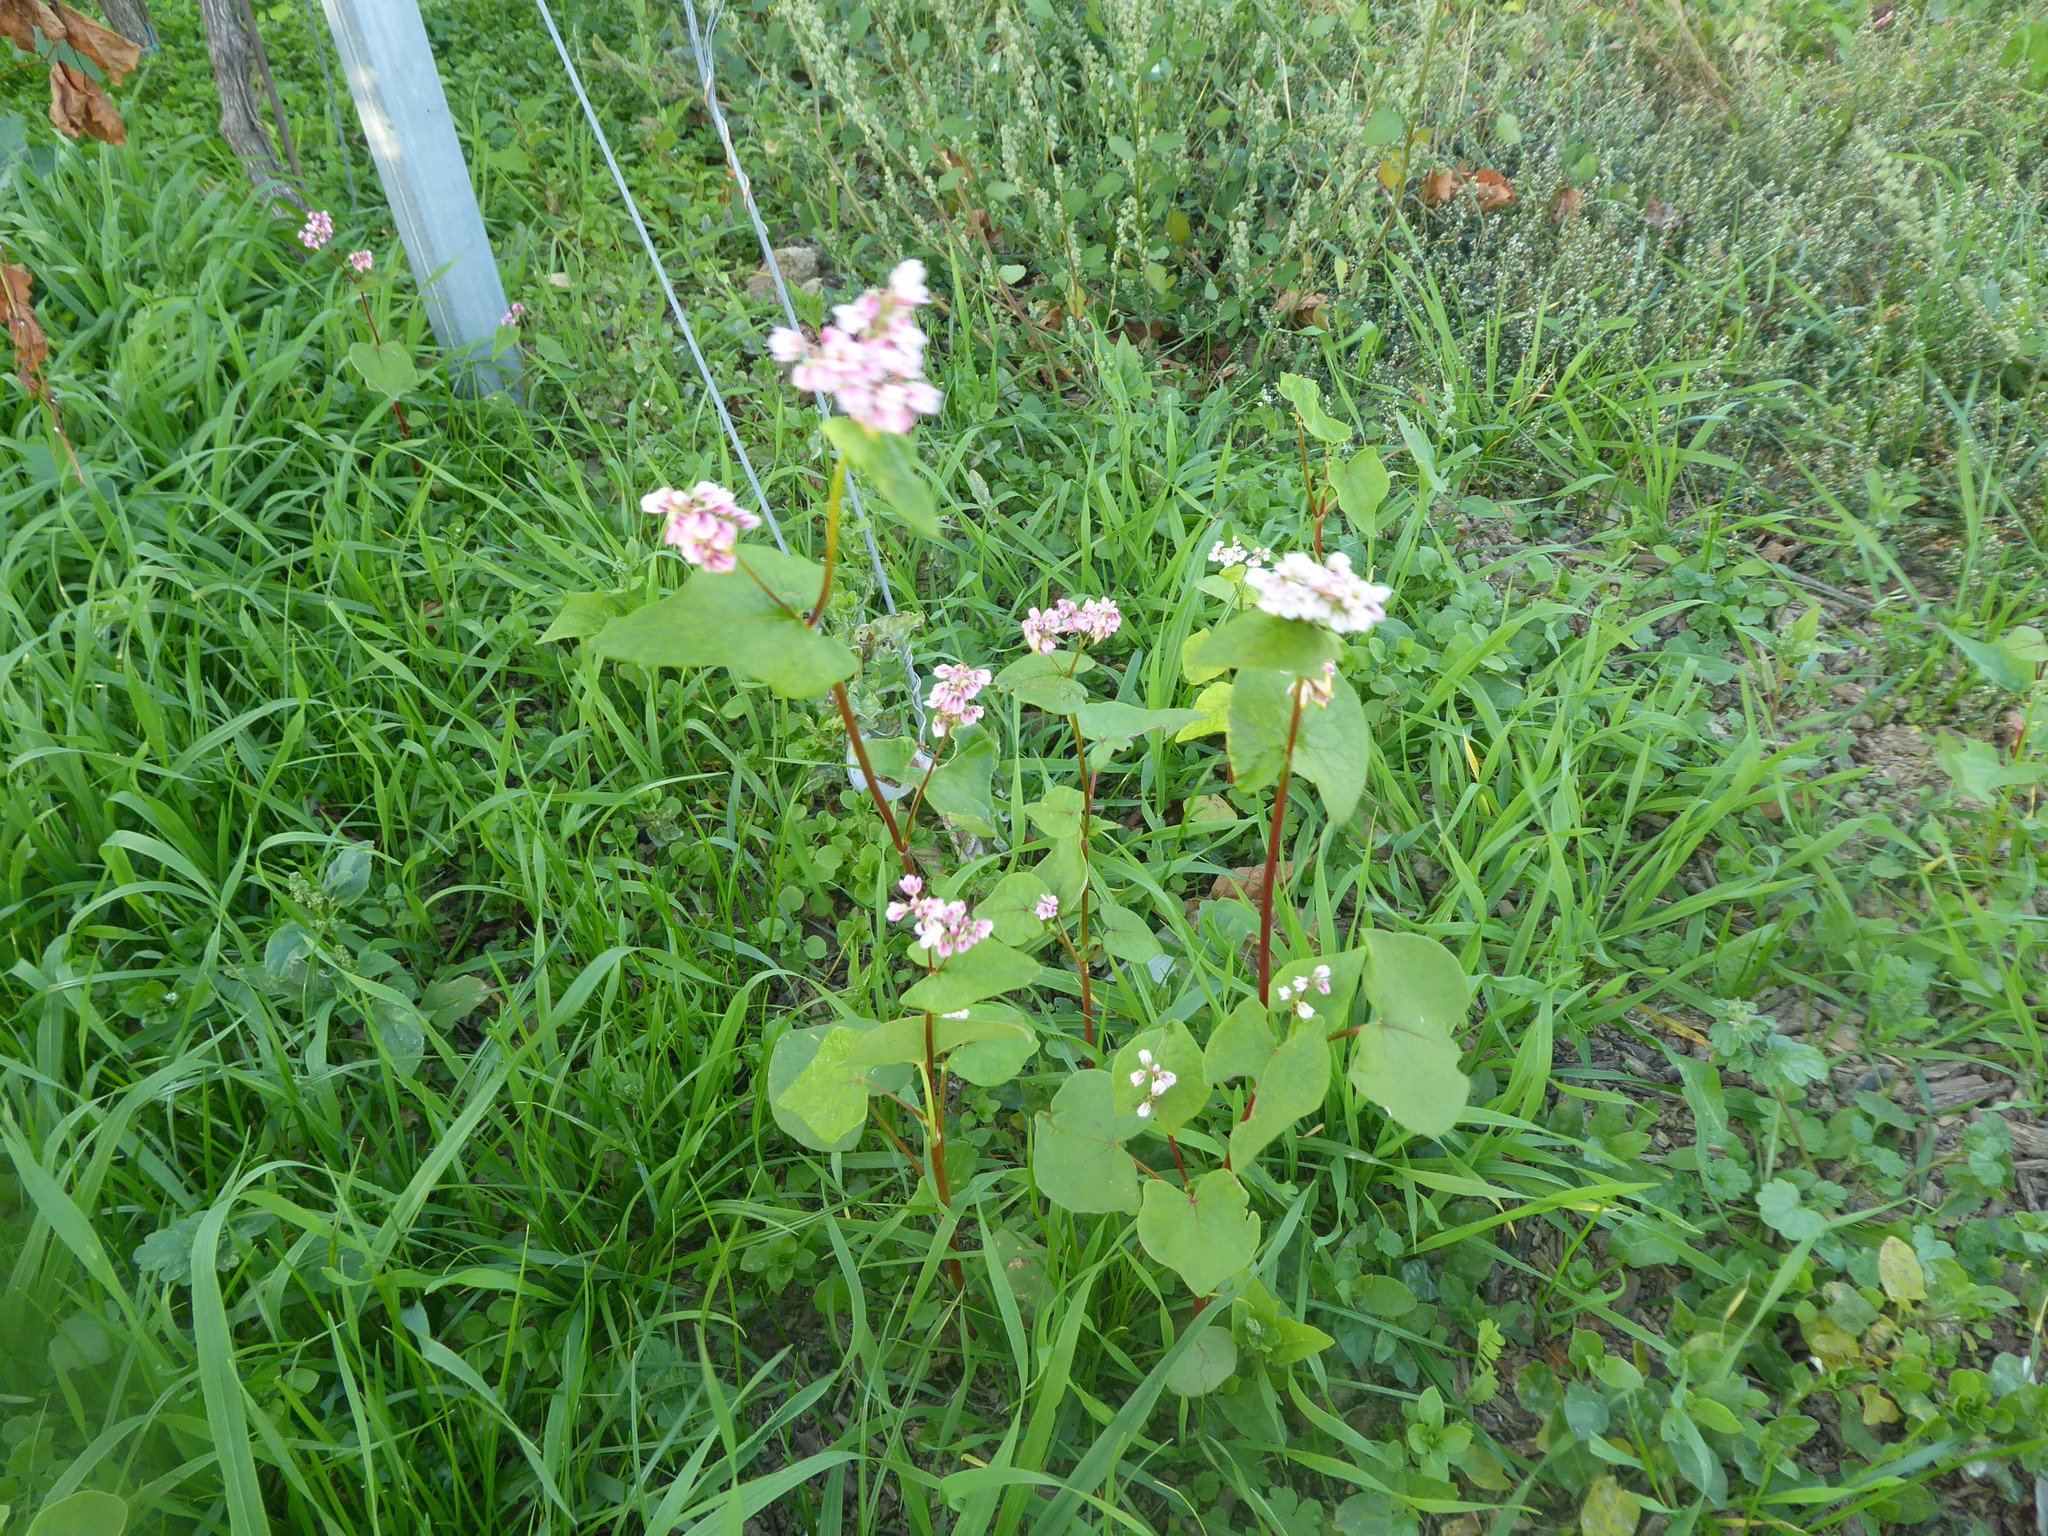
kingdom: Plantae
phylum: Tracheophyta
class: Magnoliopsida
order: Caryophyllales
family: Polygonaceae
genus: Fagopyrum
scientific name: Fagopyrum esculentum
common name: Buckwheat
